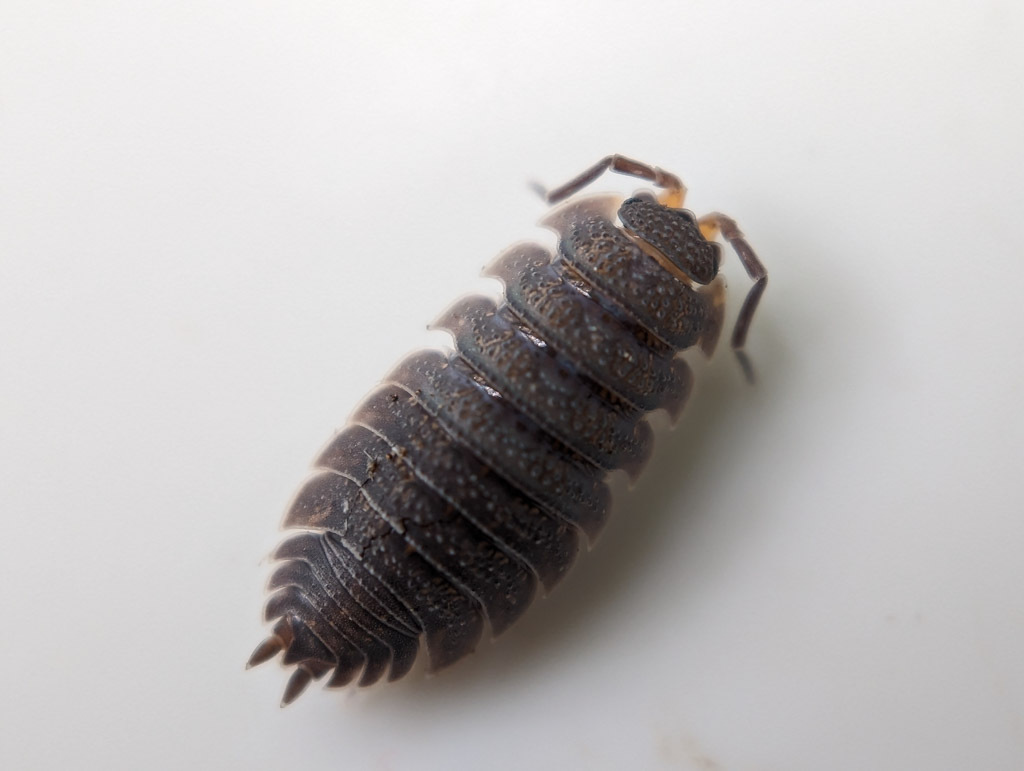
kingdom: Animalia
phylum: Arthropoda
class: Malacostraca
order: Isopoda
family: Porcellionidae
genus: Porcellio
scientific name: Porcellio scaber
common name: Common rough woodlouse
